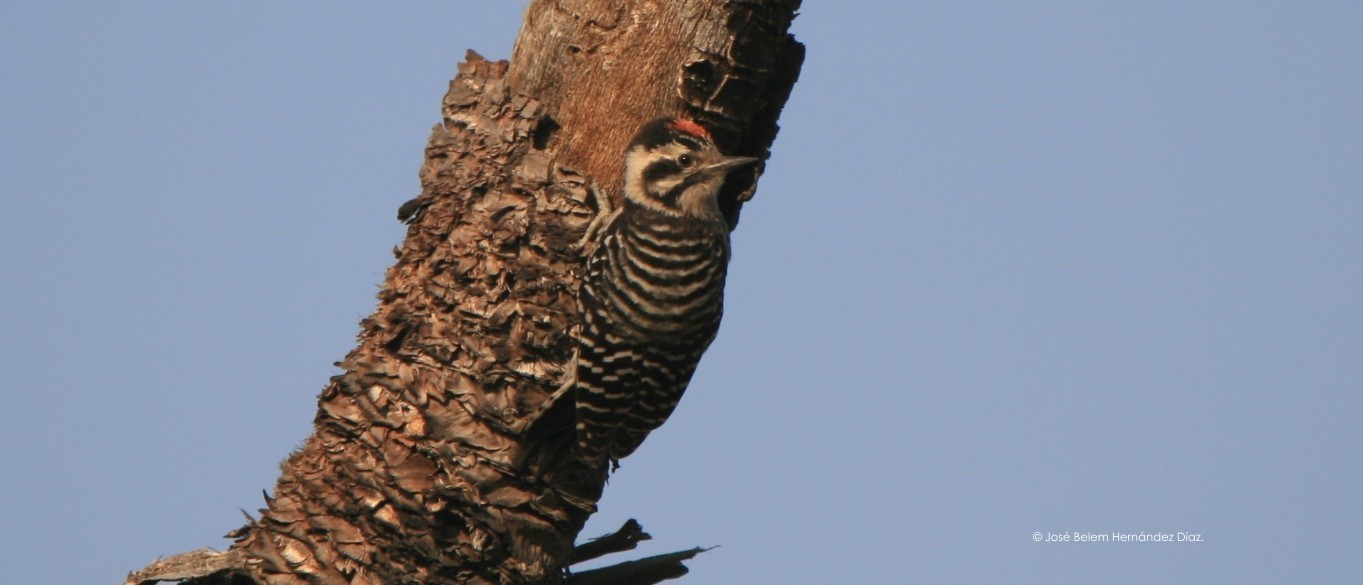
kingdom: Animalia
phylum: Chordata
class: Aves
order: Piciformes
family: Picidae
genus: Dryobates
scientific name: Dryobates scalaris
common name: Ladder-backed woodpecker
